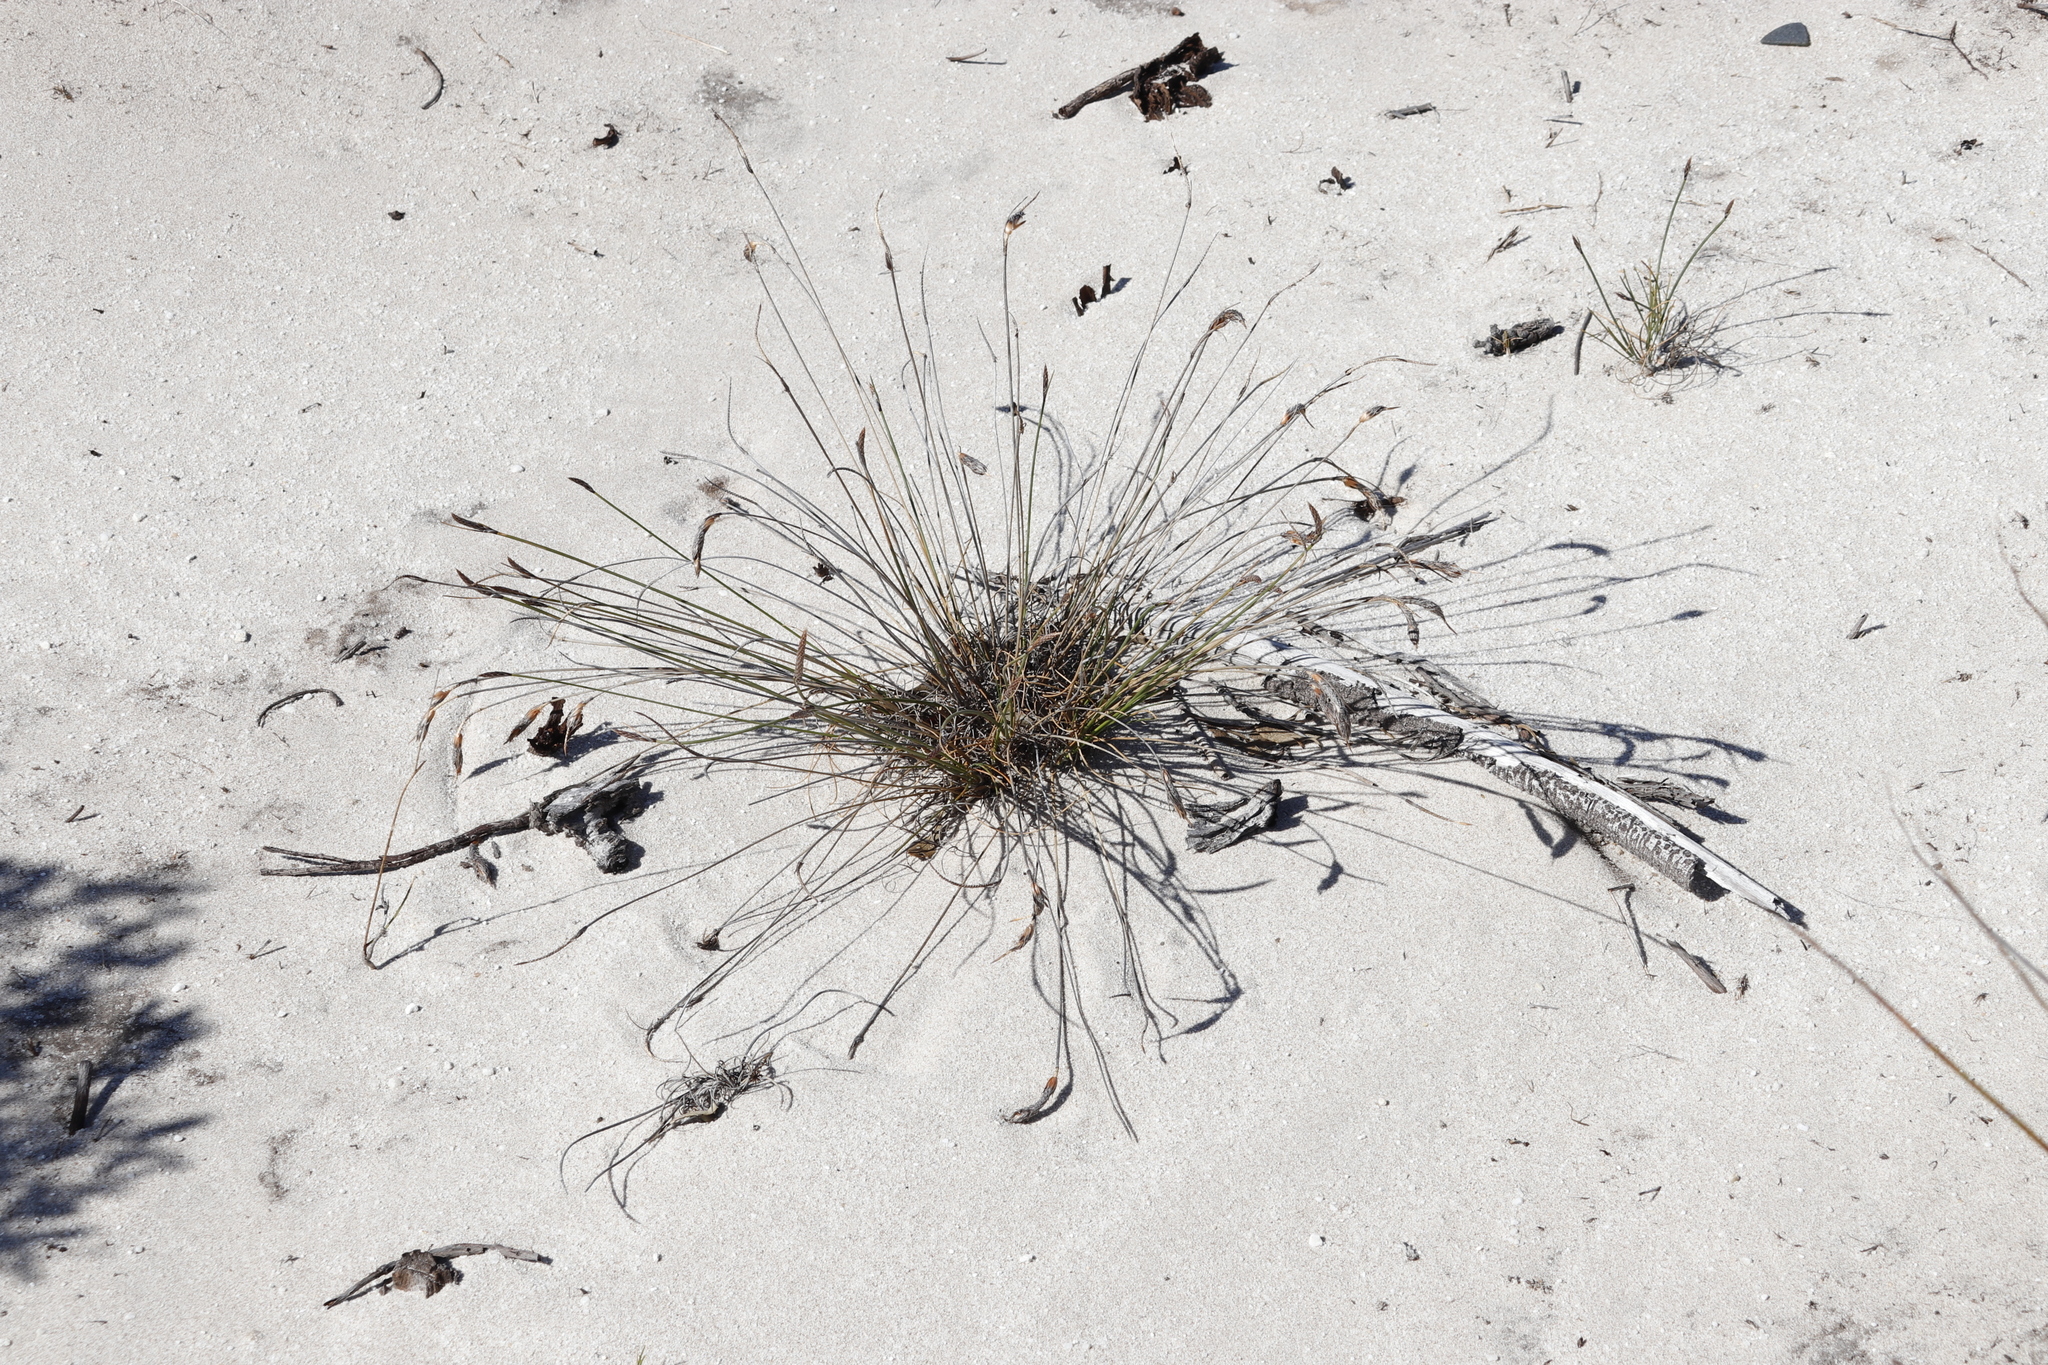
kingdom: Plantae
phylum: Tracheophyta
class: Liliopsida
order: Poales
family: Cyperaceae
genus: Ficinia
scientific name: Ficinia deusta
